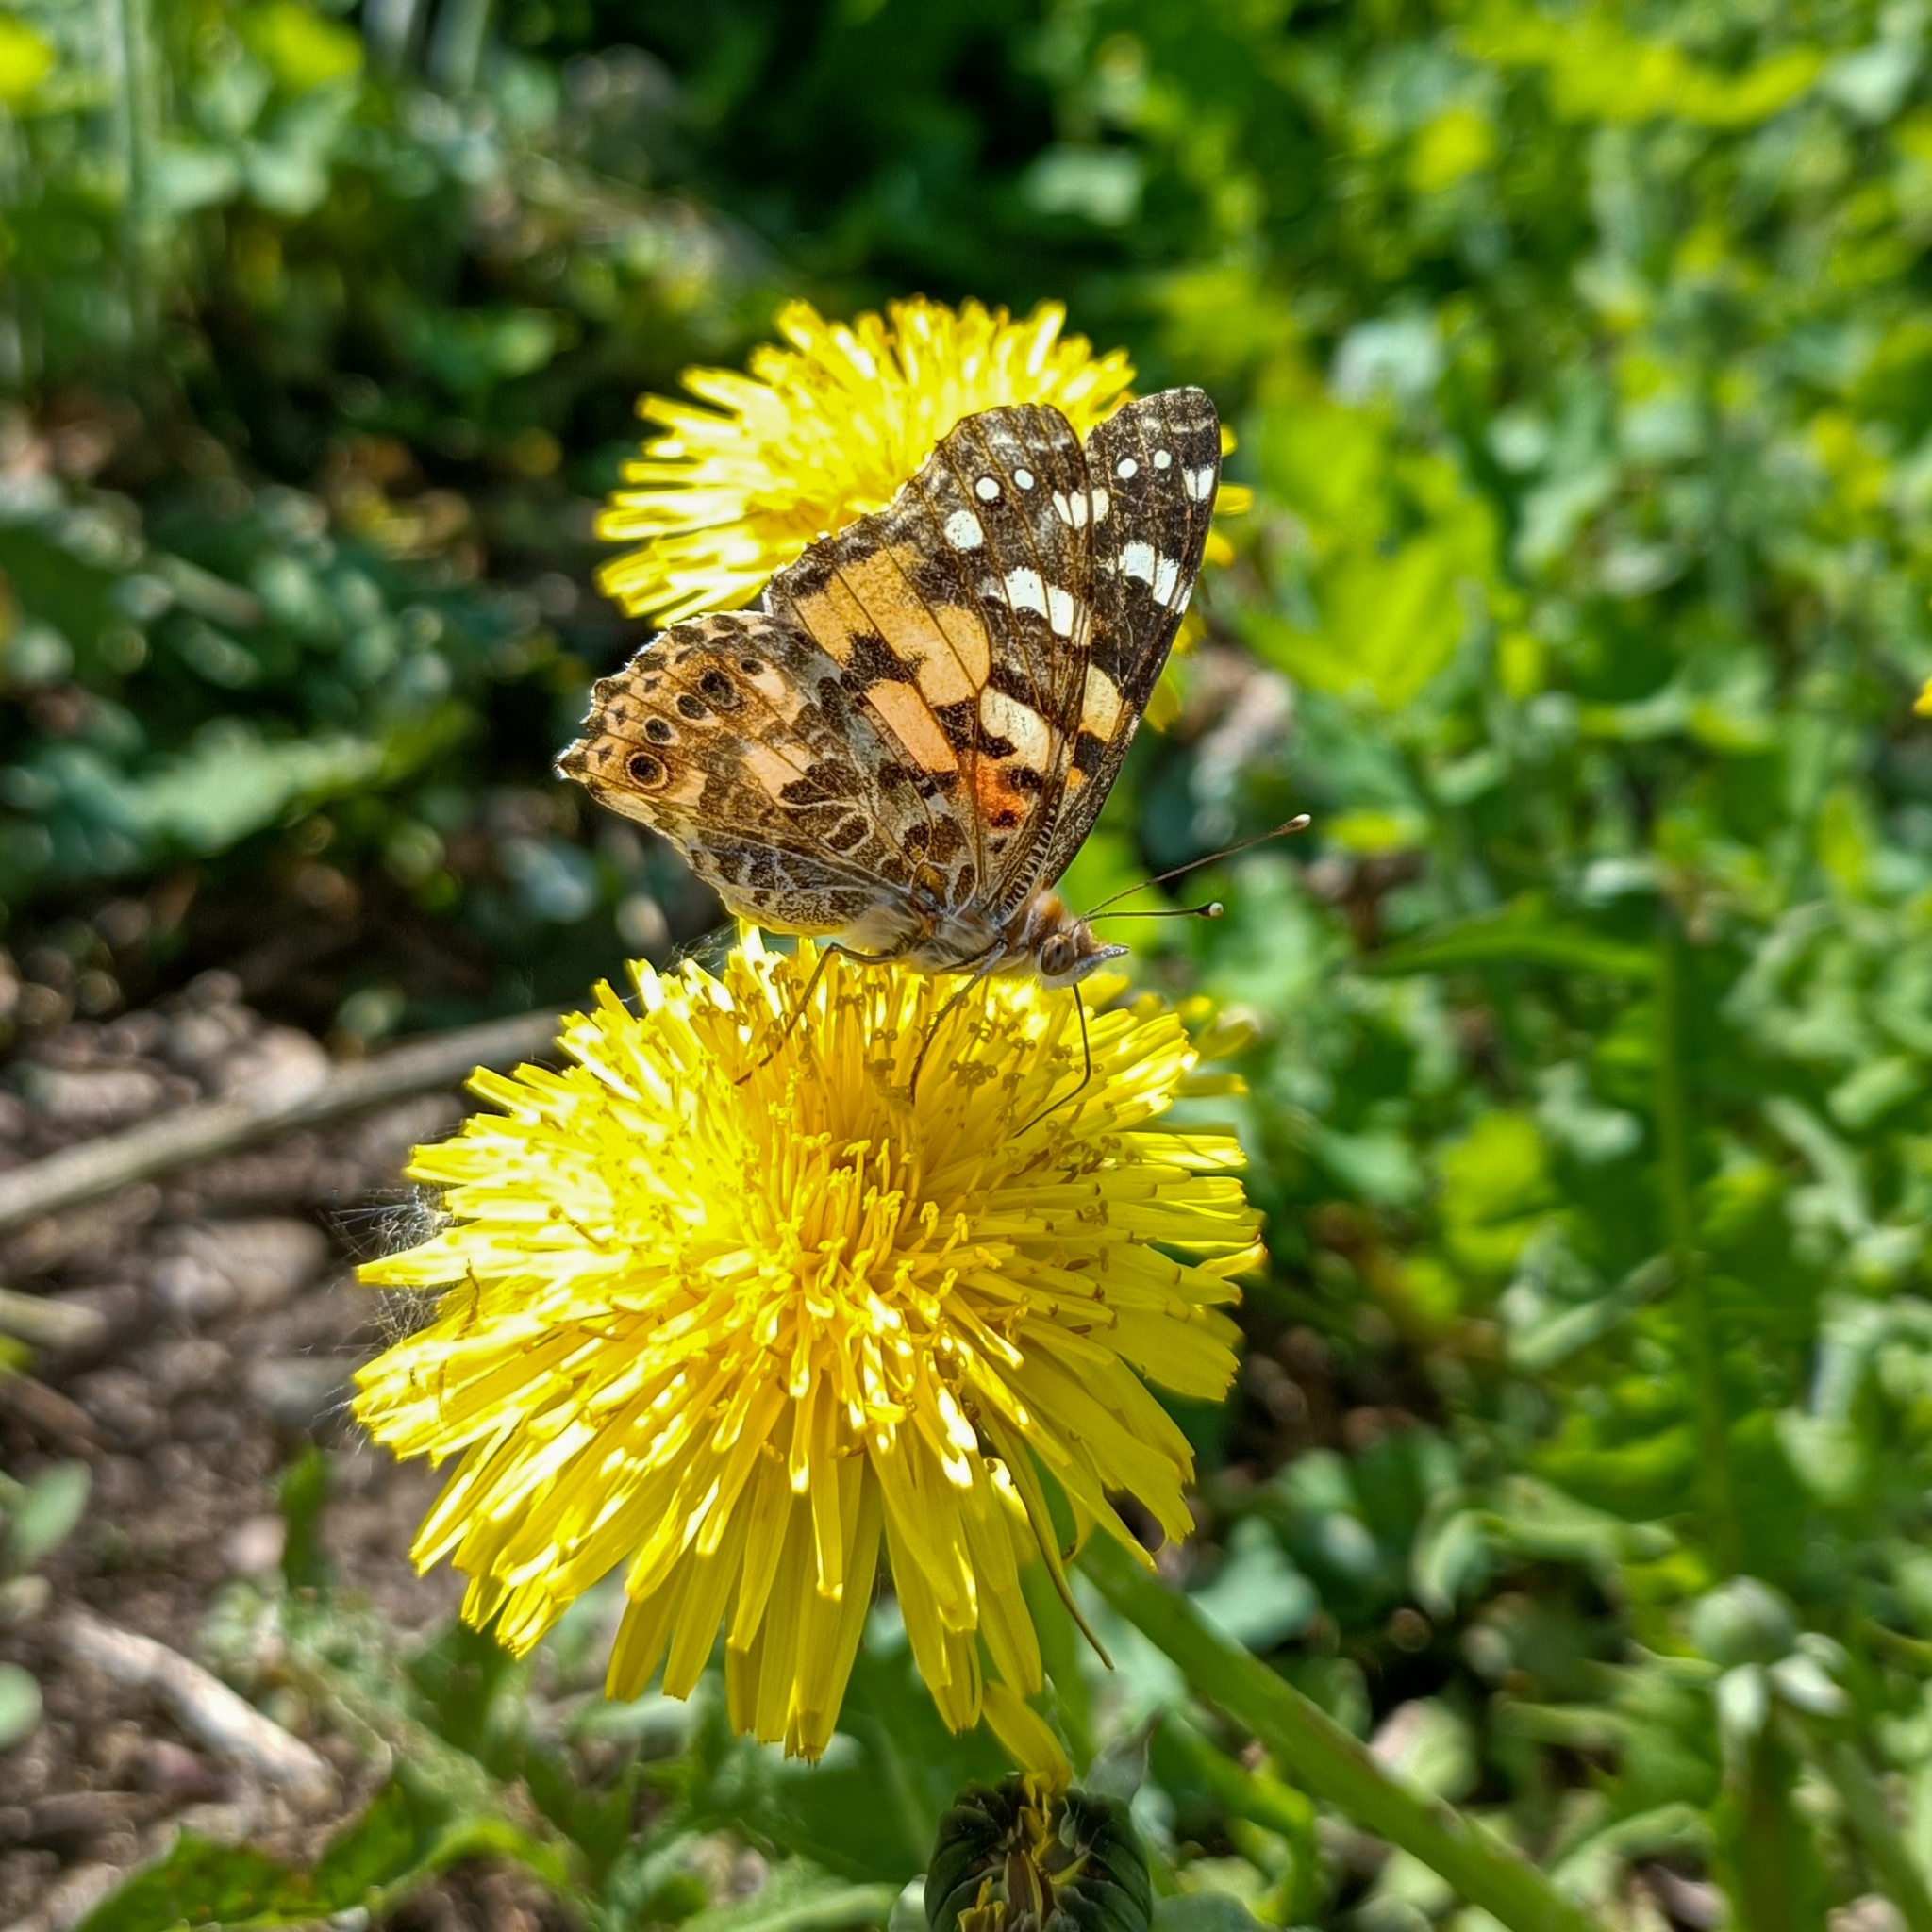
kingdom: Animalia
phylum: Arthropoda
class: Insecta
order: Lepidoptera
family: Nymphalidae
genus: Vanessa
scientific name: Vanessa cardui
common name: Painted lady
